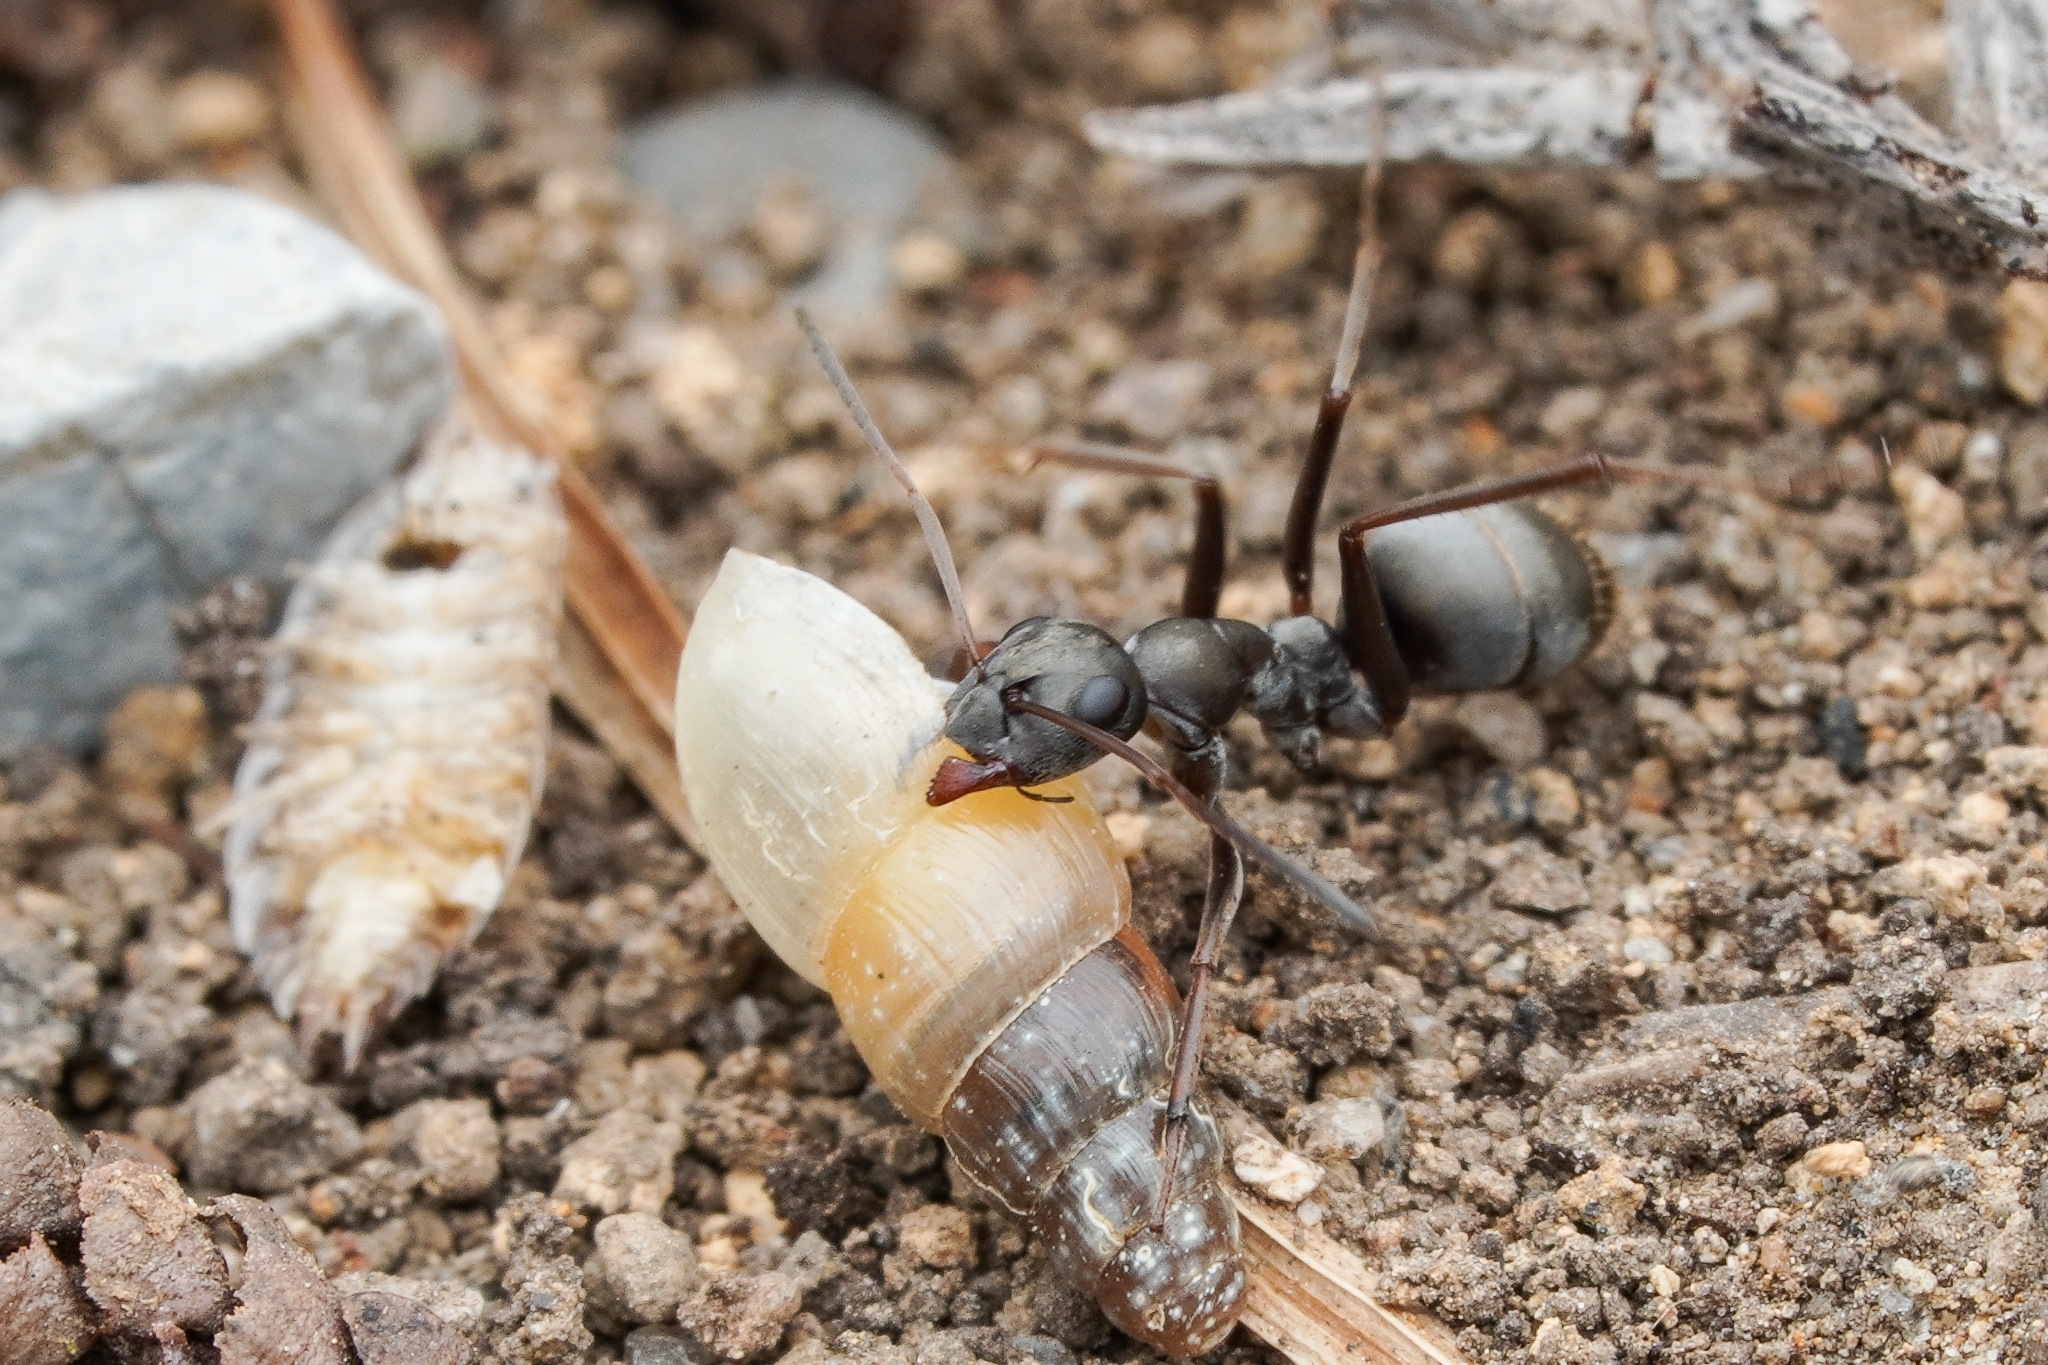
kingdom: Animalia
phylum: Arthropoda
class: Insecta
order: Hymenoptera
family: Formicidae
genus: Formica
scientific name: Formica japonica
